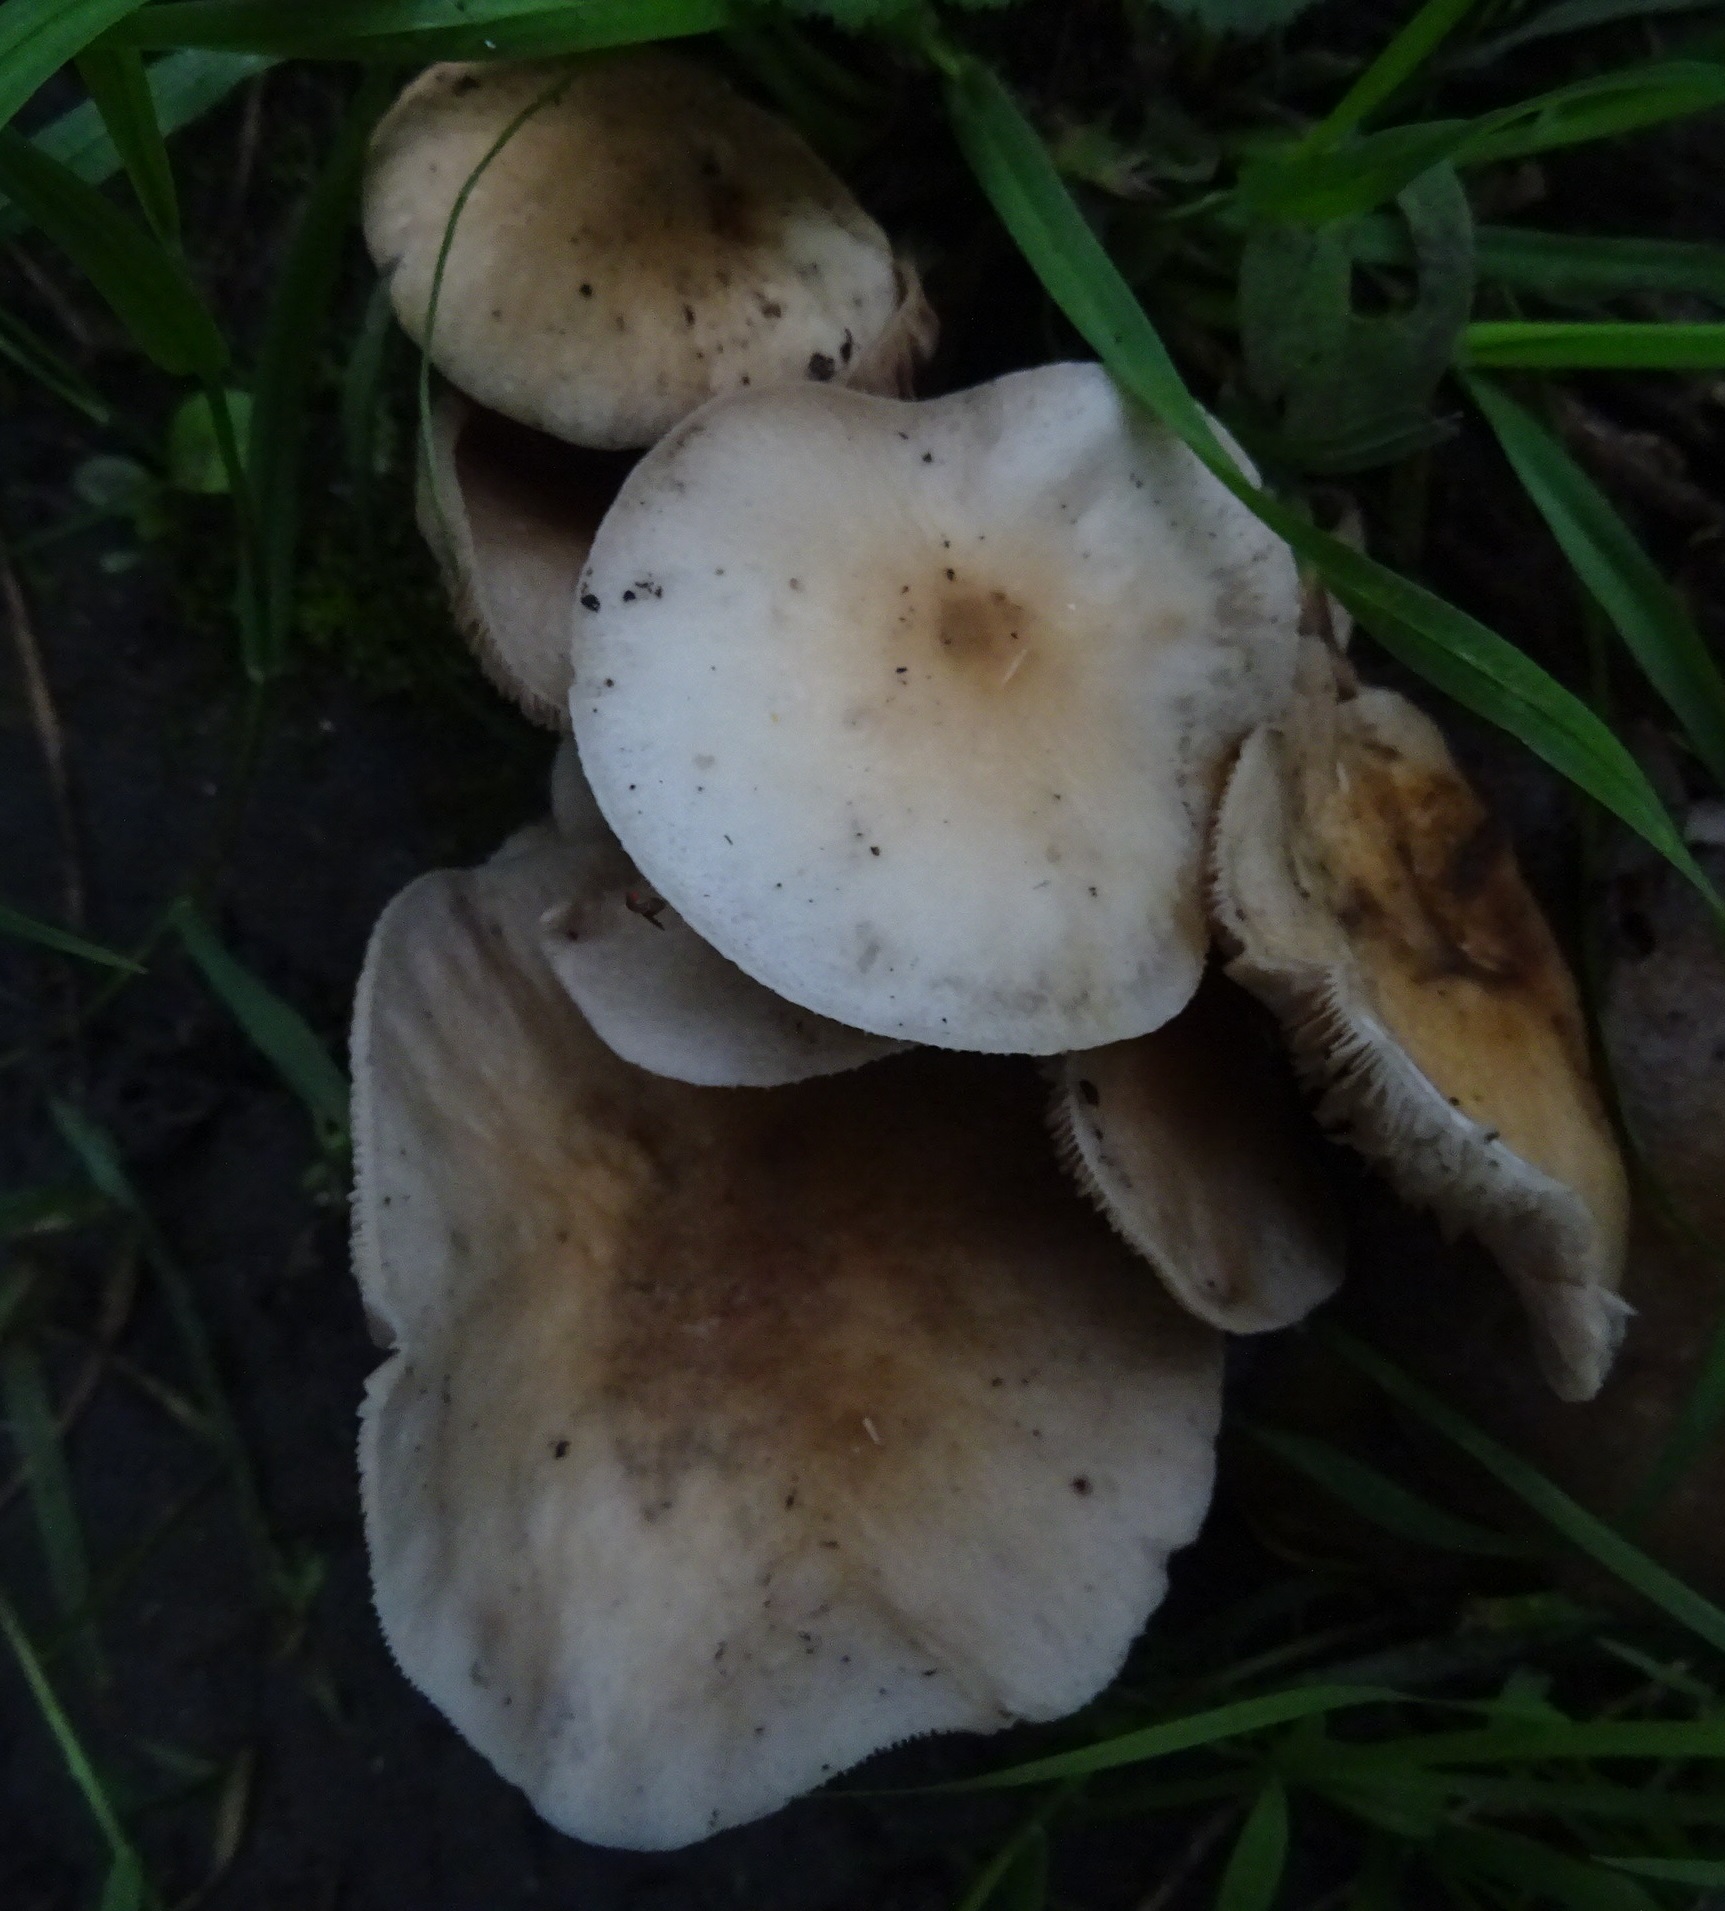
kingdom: Fungi
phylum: Basidiomycota
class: Agaricomycetes
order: Agaricales
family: Tubariaceae
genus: Cyclocybe
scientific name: Cyclocybe cylindracea
